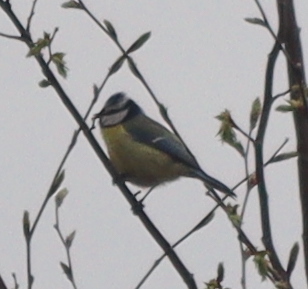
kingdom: Animalia
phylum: Chordata
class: Aves
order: Passeriformes
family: Paridae
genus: Cyanistes
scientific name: Cyanistes caeruleus
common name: Eurasian blue tit
